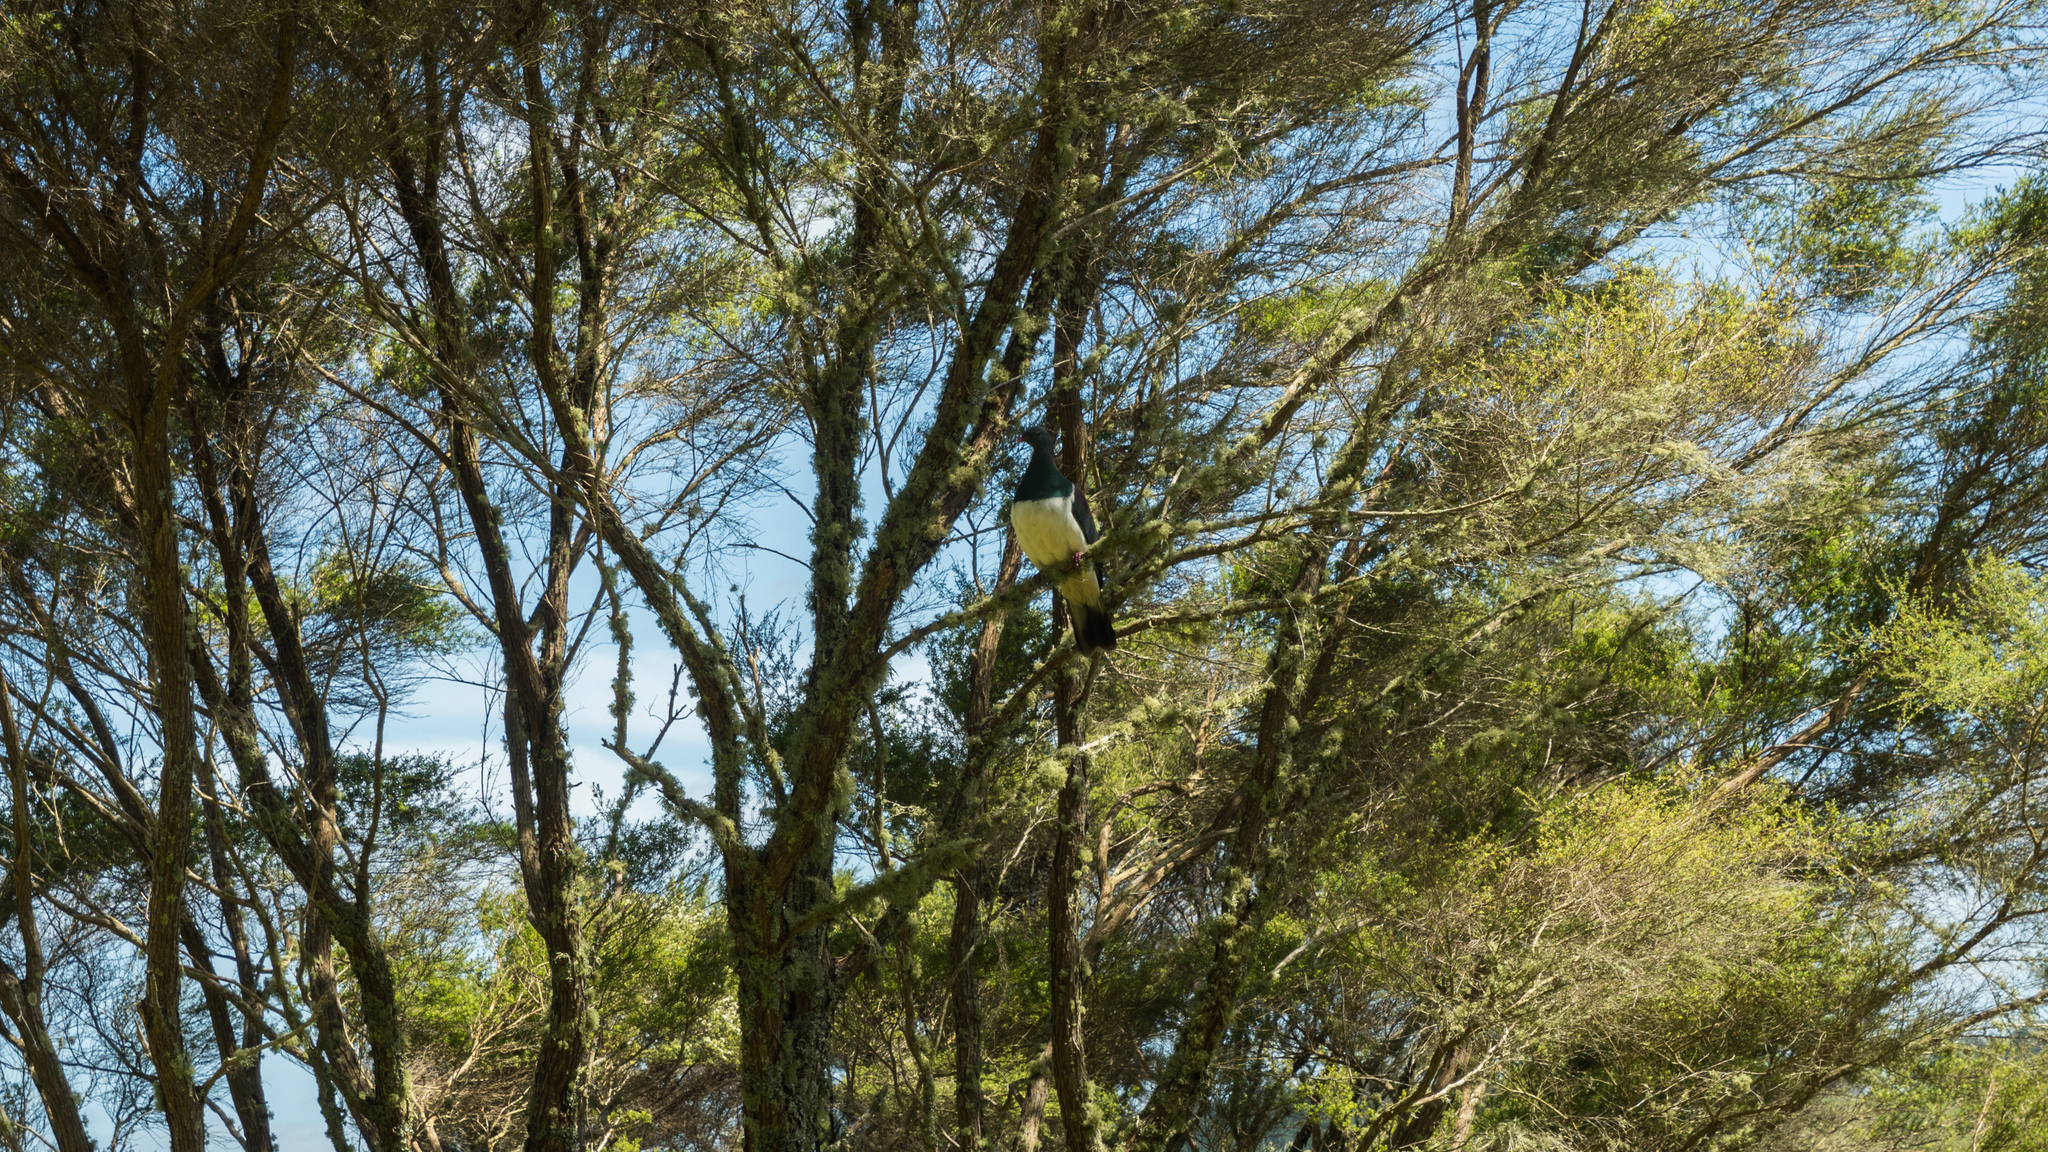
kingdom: Animalia
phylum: Chordata
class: Aves
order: Columbiformes
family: Columbidae
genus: Hemiphaga
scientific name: Hemiphaga novaeseelandiae
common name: New zealand pigeon
